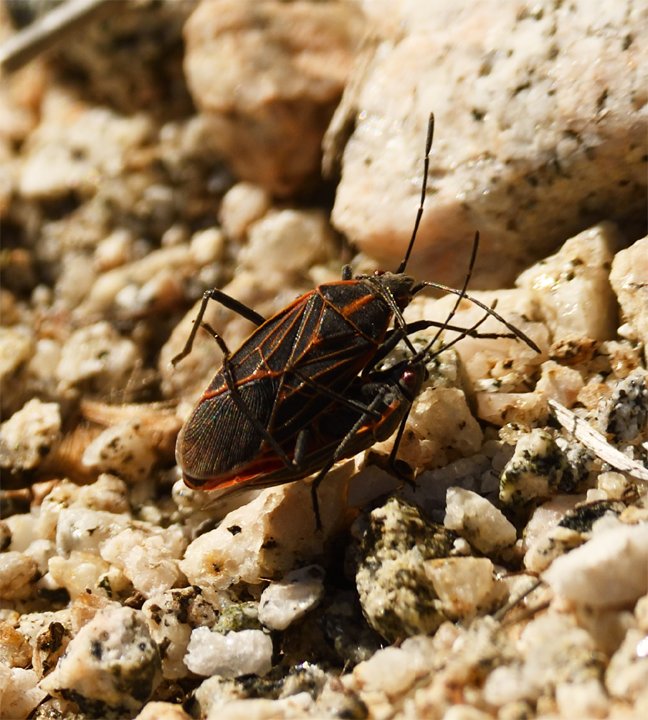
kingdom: Animalia
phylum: Arthropoda
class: Insecta
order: Hemiptera
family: Rhopalidae
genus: Boisea
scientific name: Boisea rubrolineata
